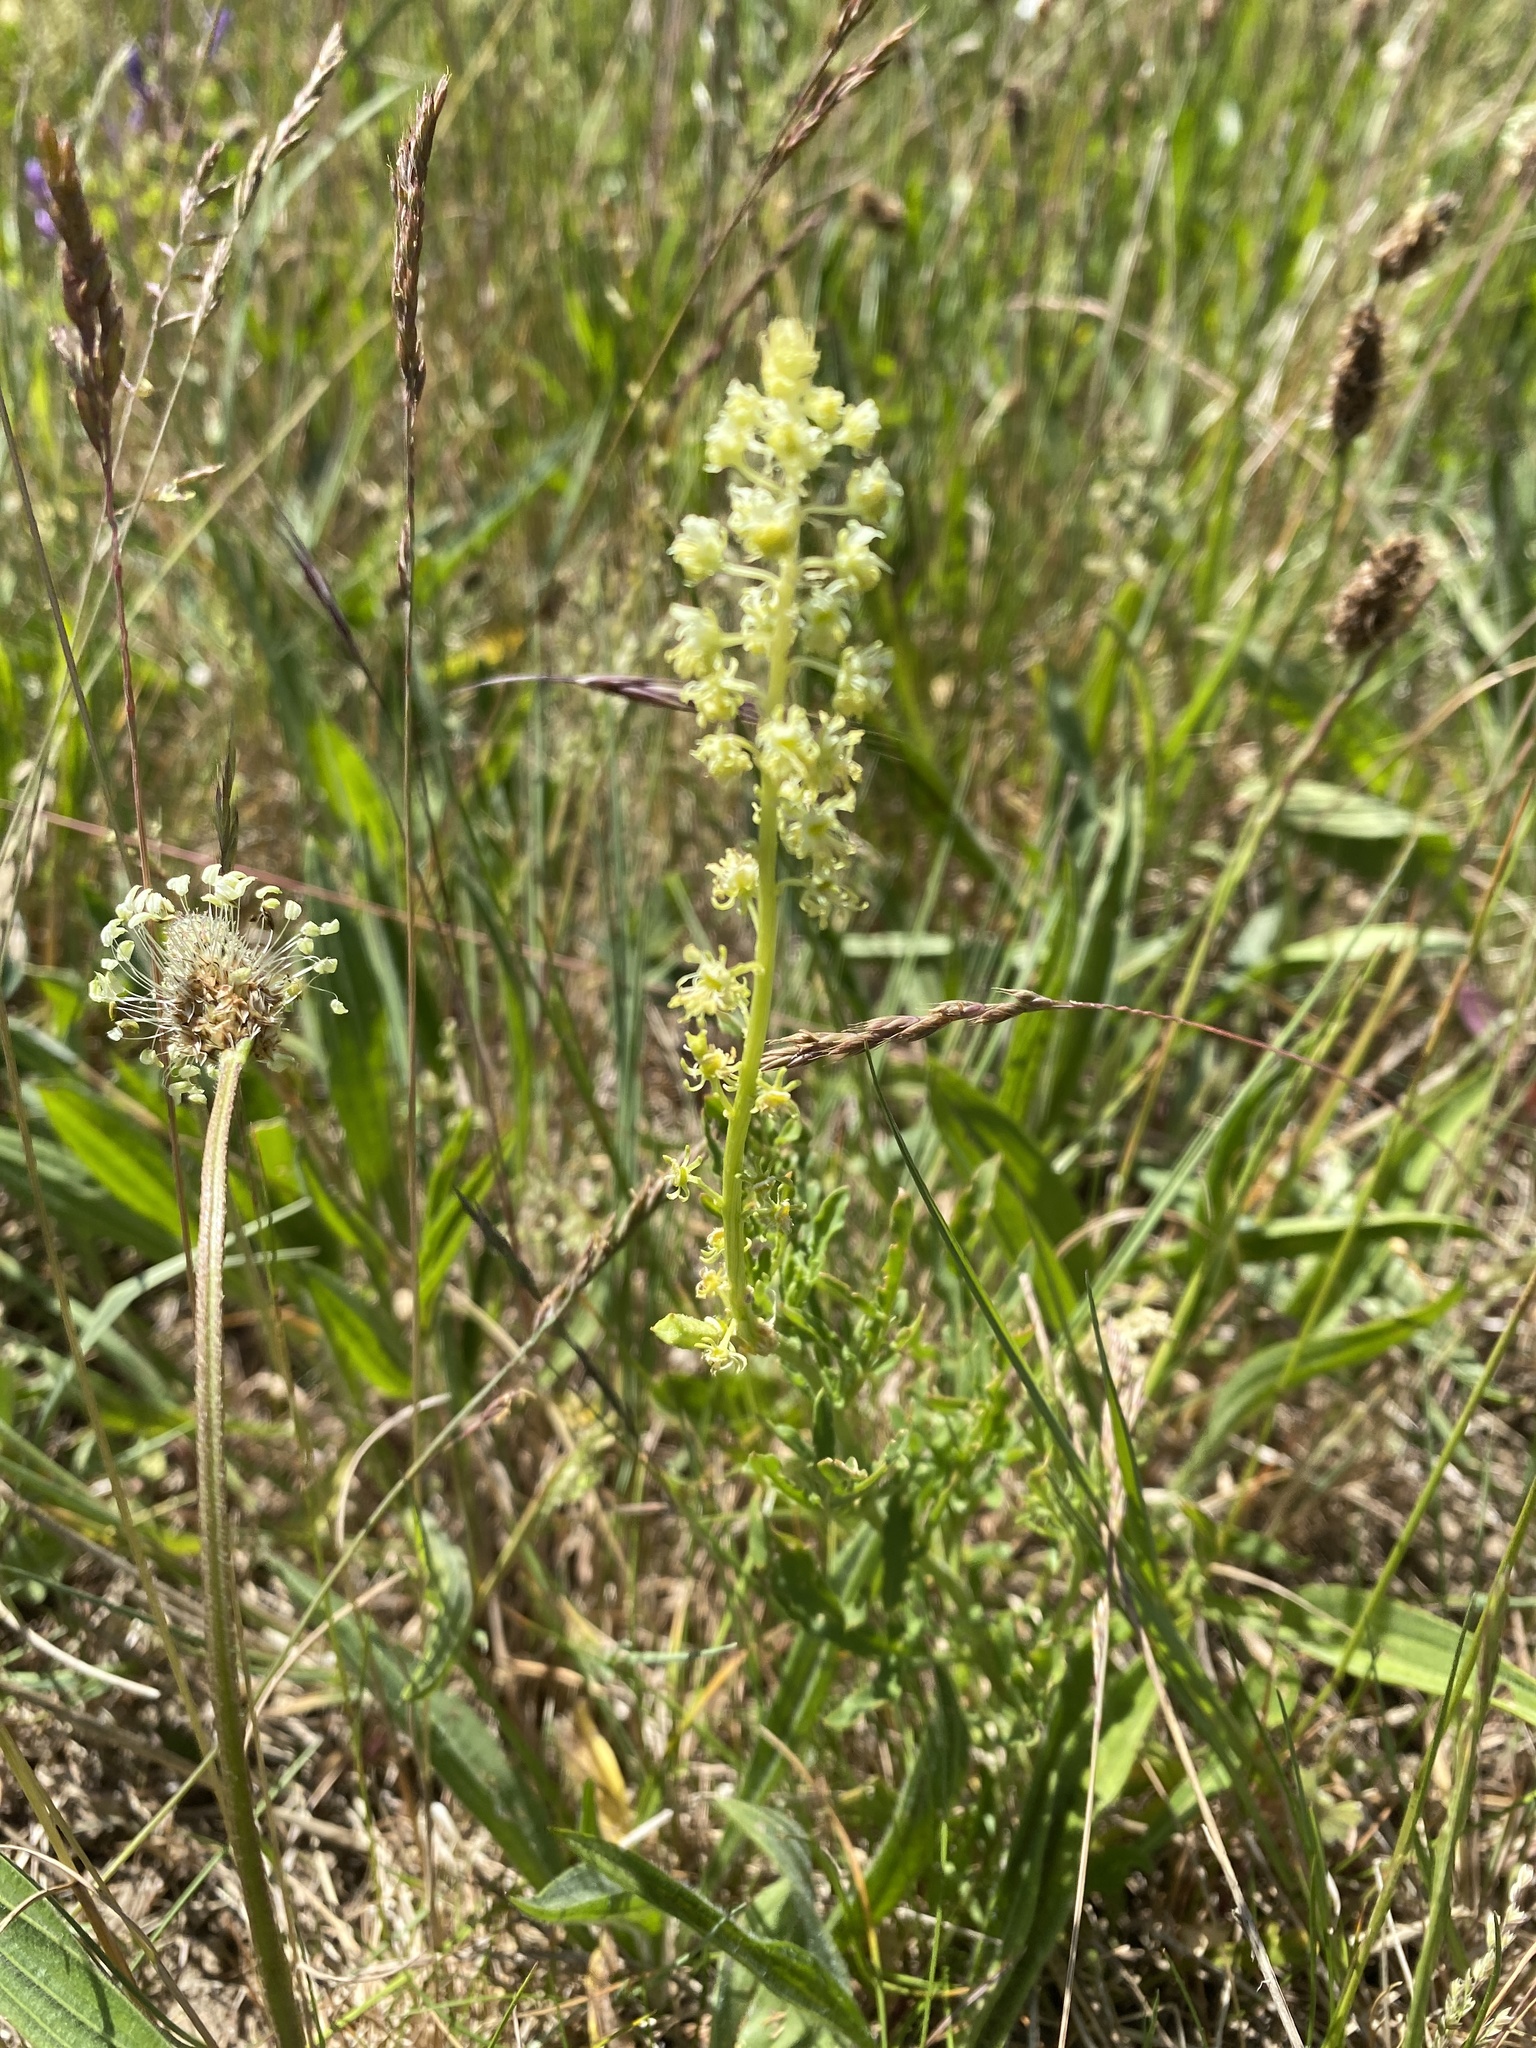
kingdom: Plantae
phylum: Tracheophyta
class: Magnoliopsida
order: Brassicales
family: Resedaceae
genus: Reseda
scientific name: Reseda lutea
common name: Wild mignonette
